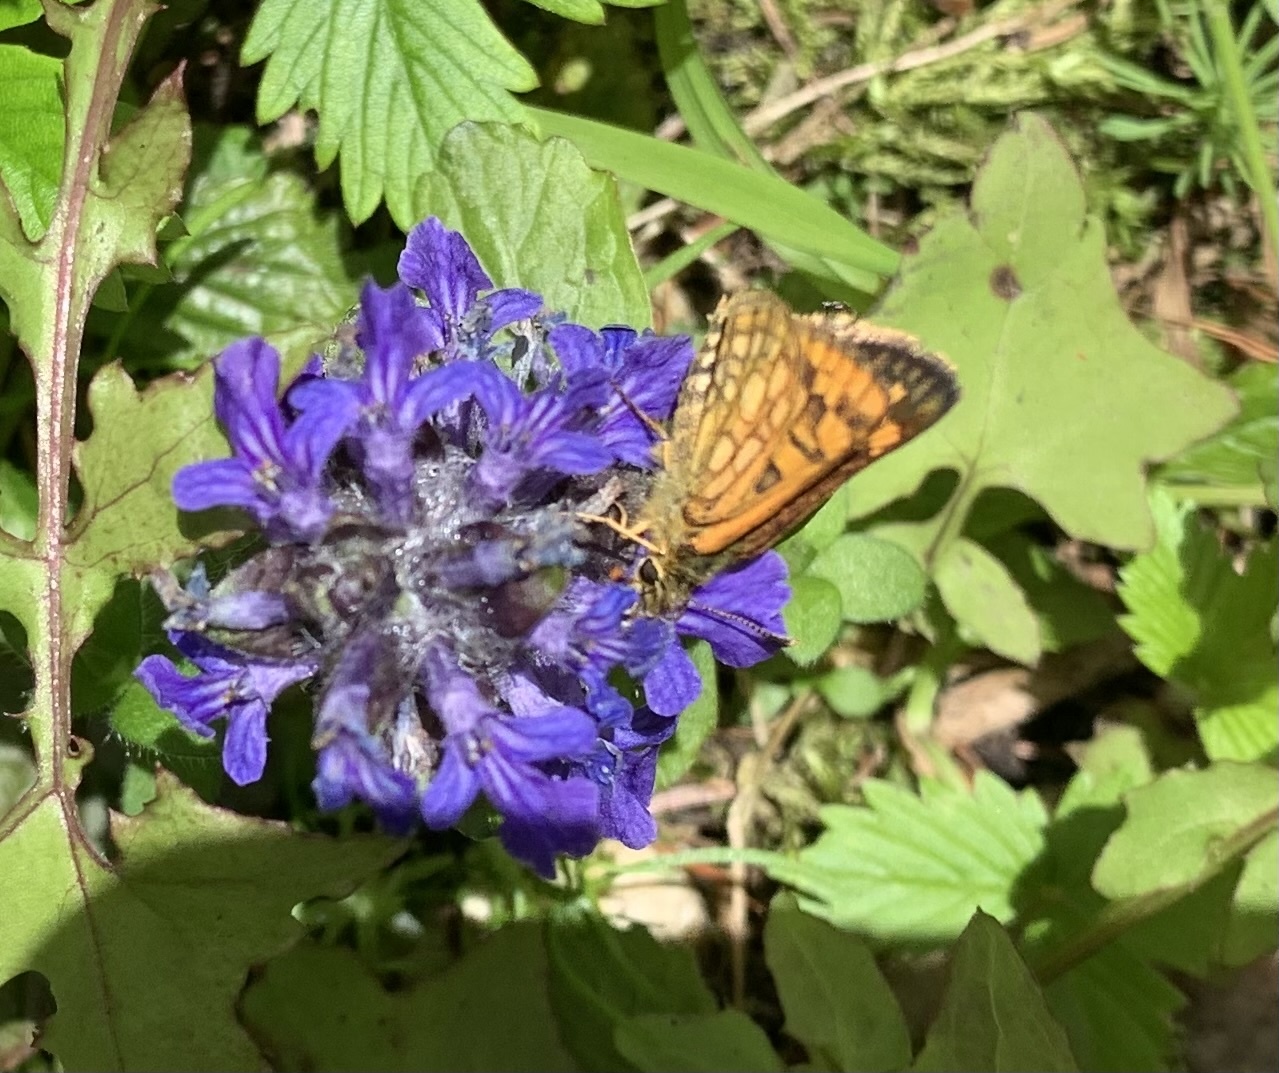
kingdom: Animalia
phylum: Arthropoda
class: Insecta
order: Lepidoptera
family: Hesperiidae
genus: Carterocephalus
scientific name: Carterocephalus palaemon
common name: Chequered skipper
